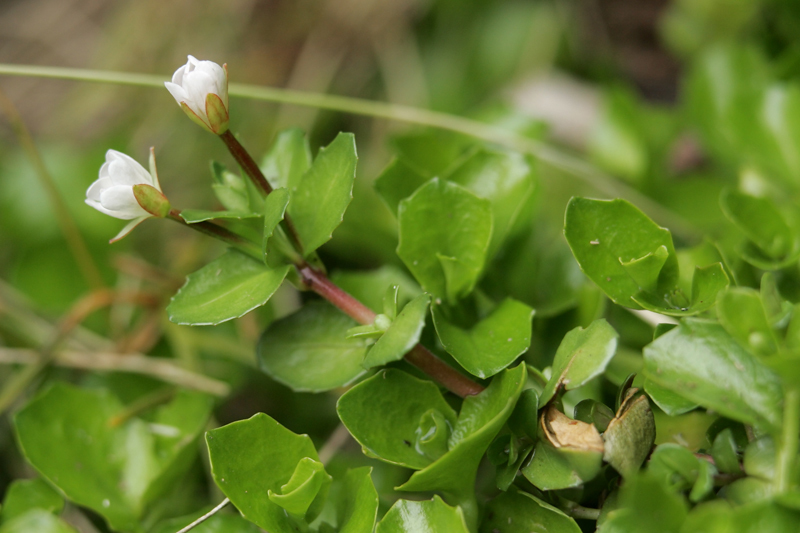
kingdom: Plantae
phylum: Tracheophyta
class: Magnoliopsida
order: Myrtales
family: Onagraceae
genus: Epilobium
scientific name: Epilobium alsinoides
